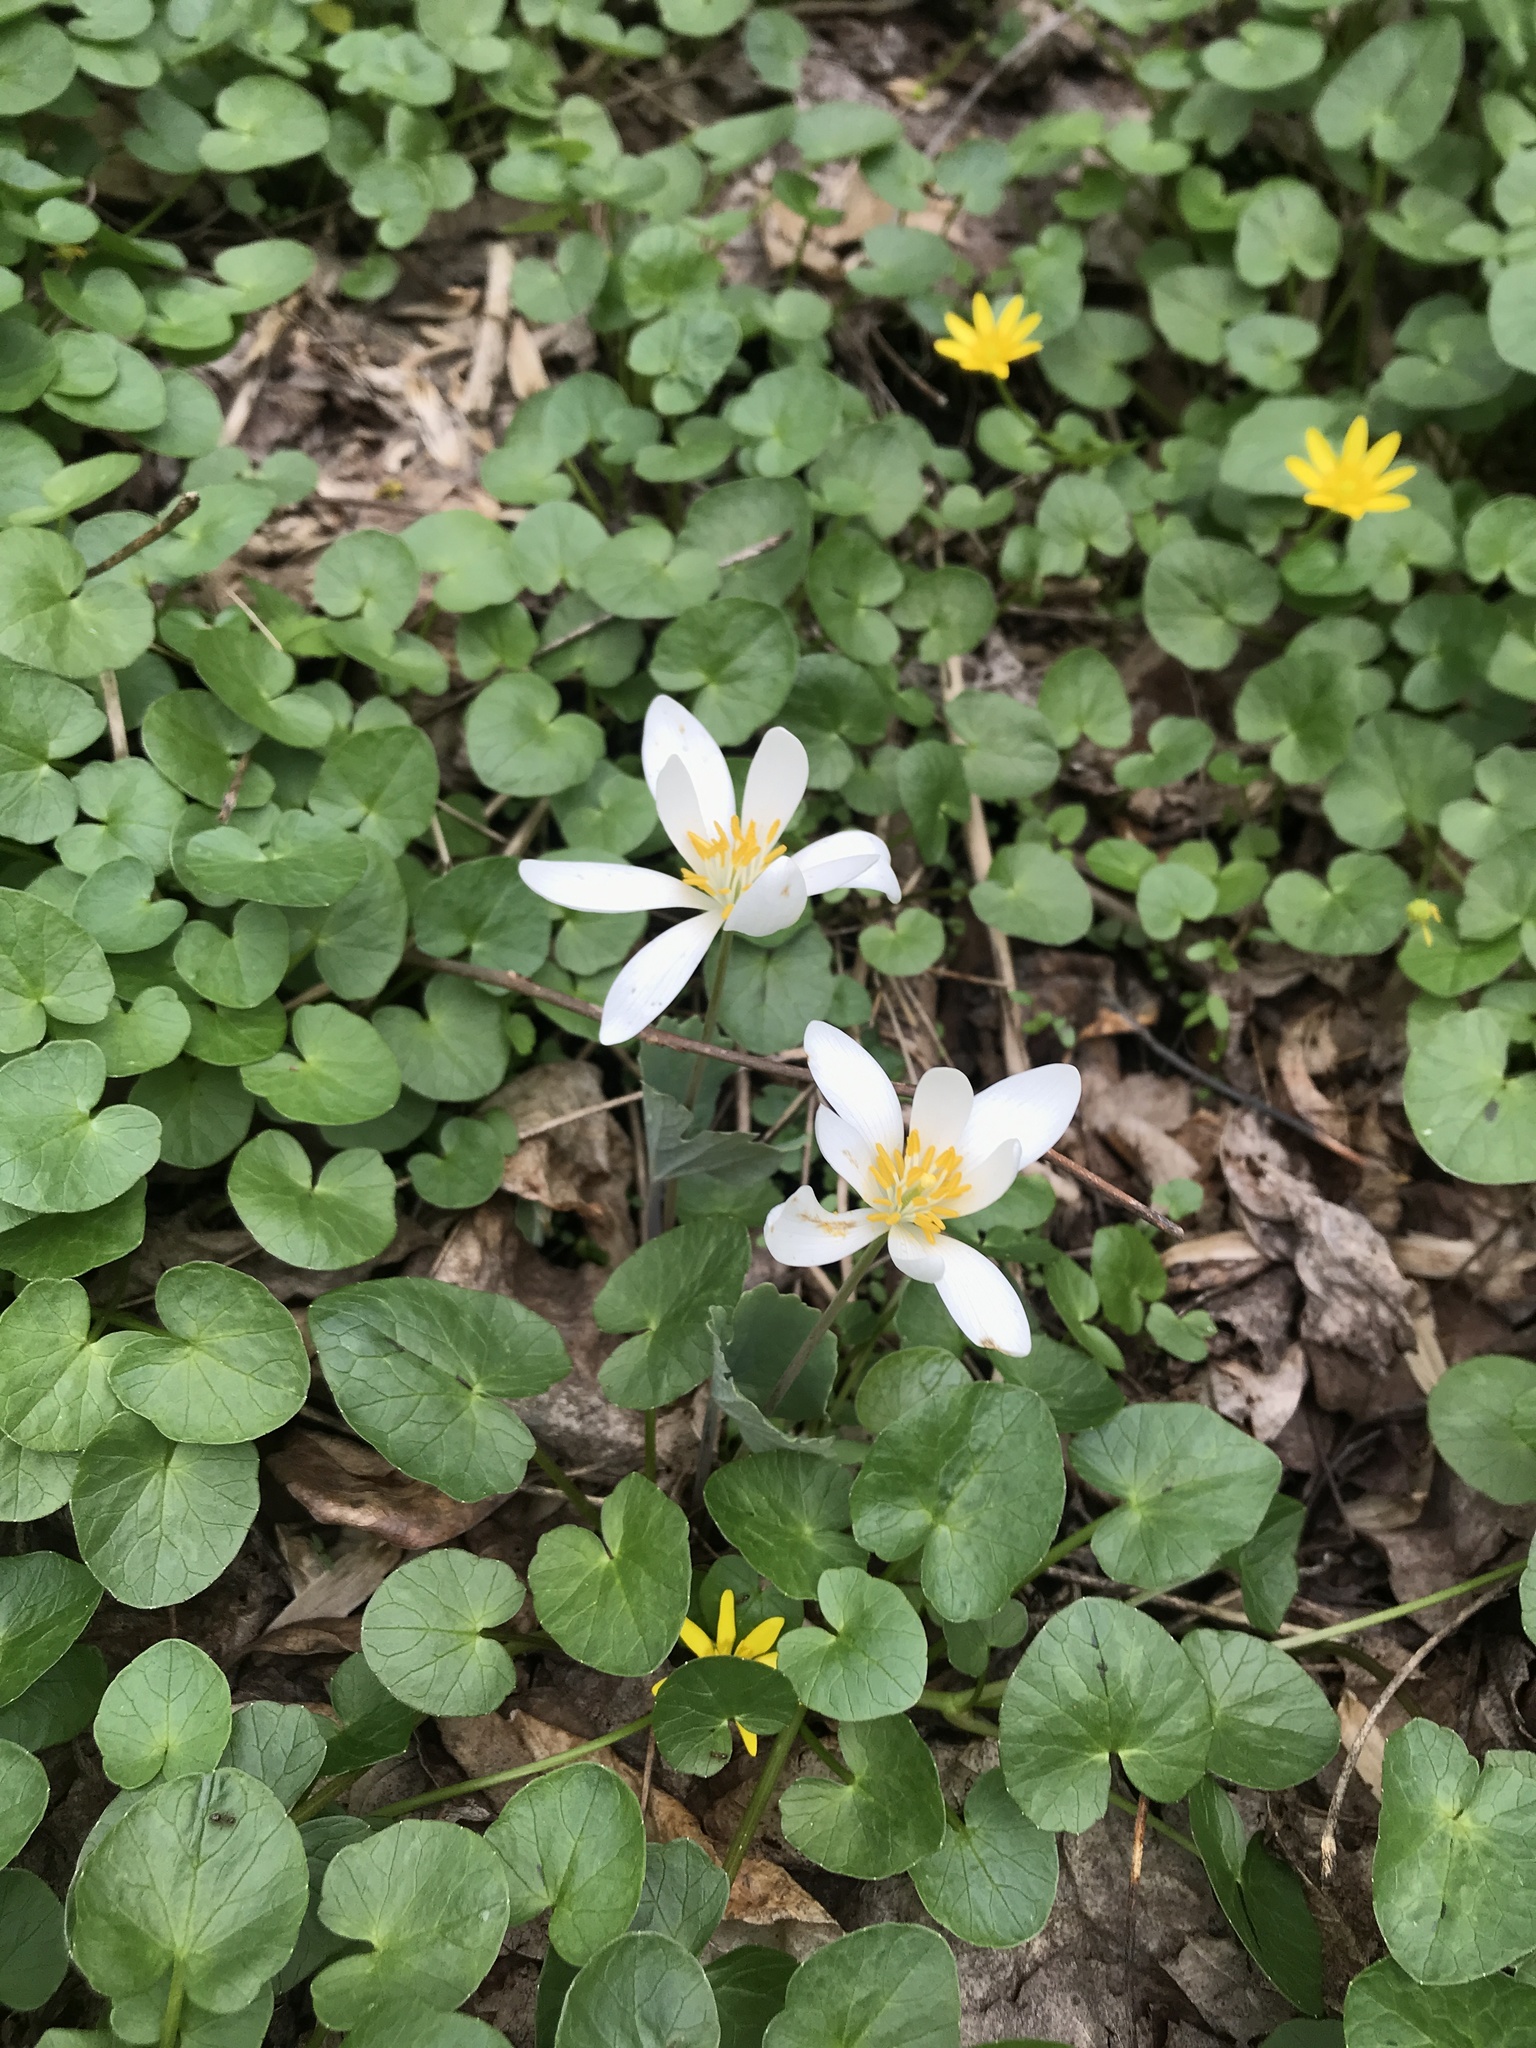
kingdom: Plantae
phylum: Tracheophyta
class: Magnoliopsida
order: Ranunculales
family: Papaveraceae
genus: Sanguinaria
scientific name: Sanguinaria canadensis
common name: Bloodroot
